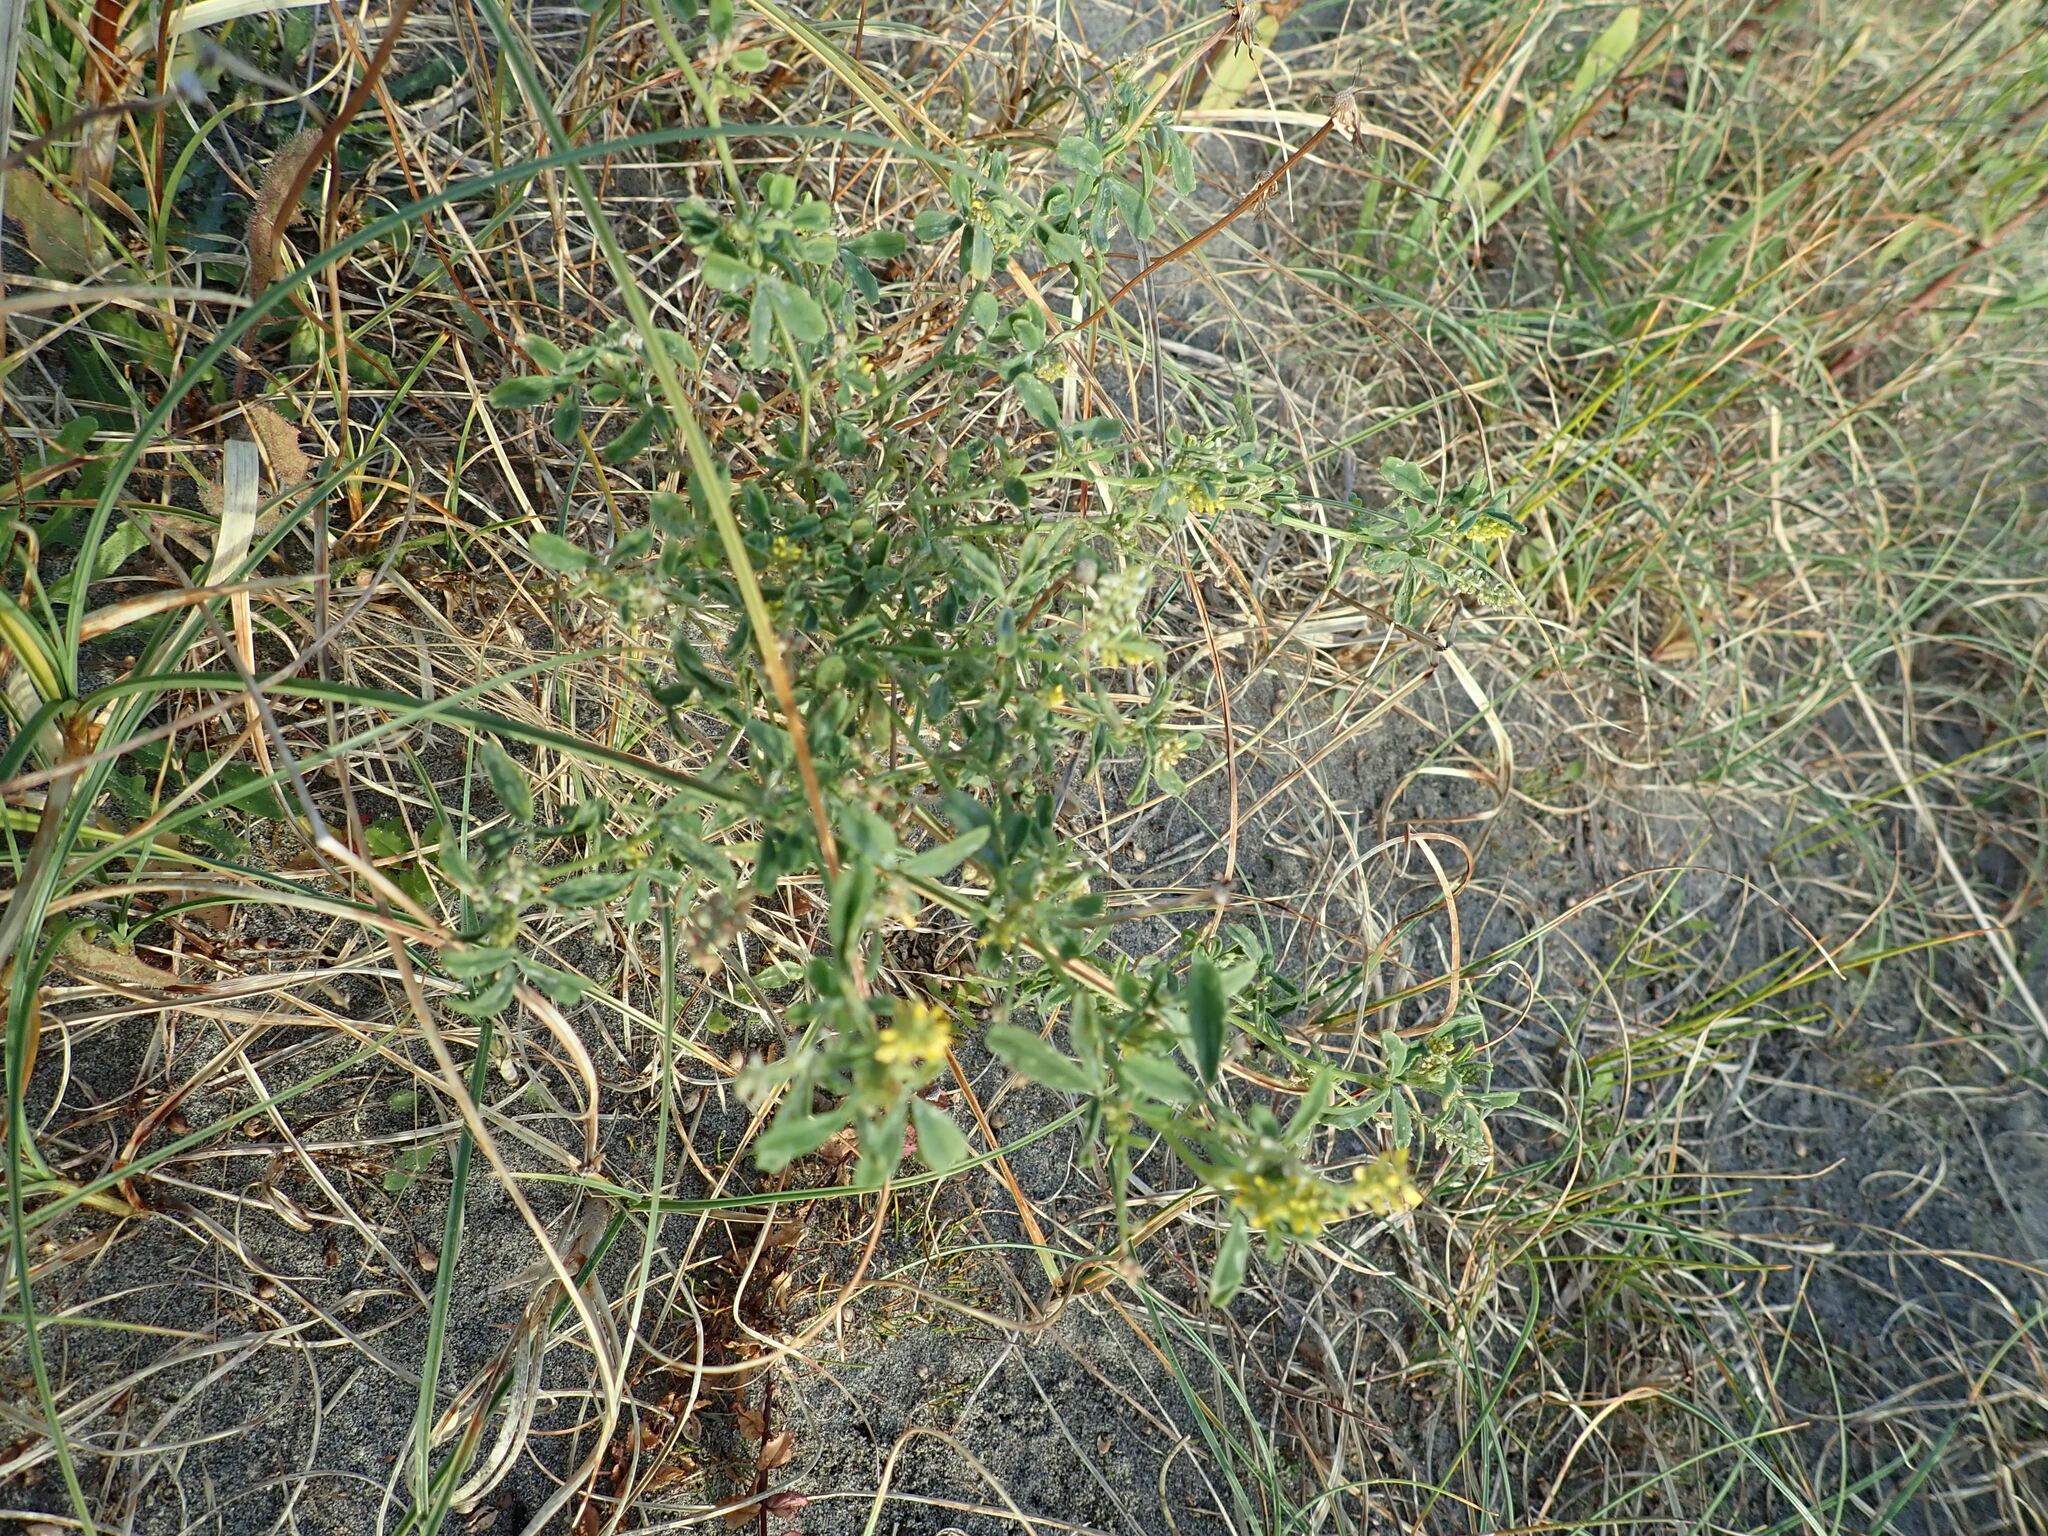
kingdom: Plantae
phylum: Tracheophyta
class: Magnoliopsida
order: Fabales
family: Fabaceae
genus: Melilotus
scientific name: Melilotus indicus
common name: Small melilot
